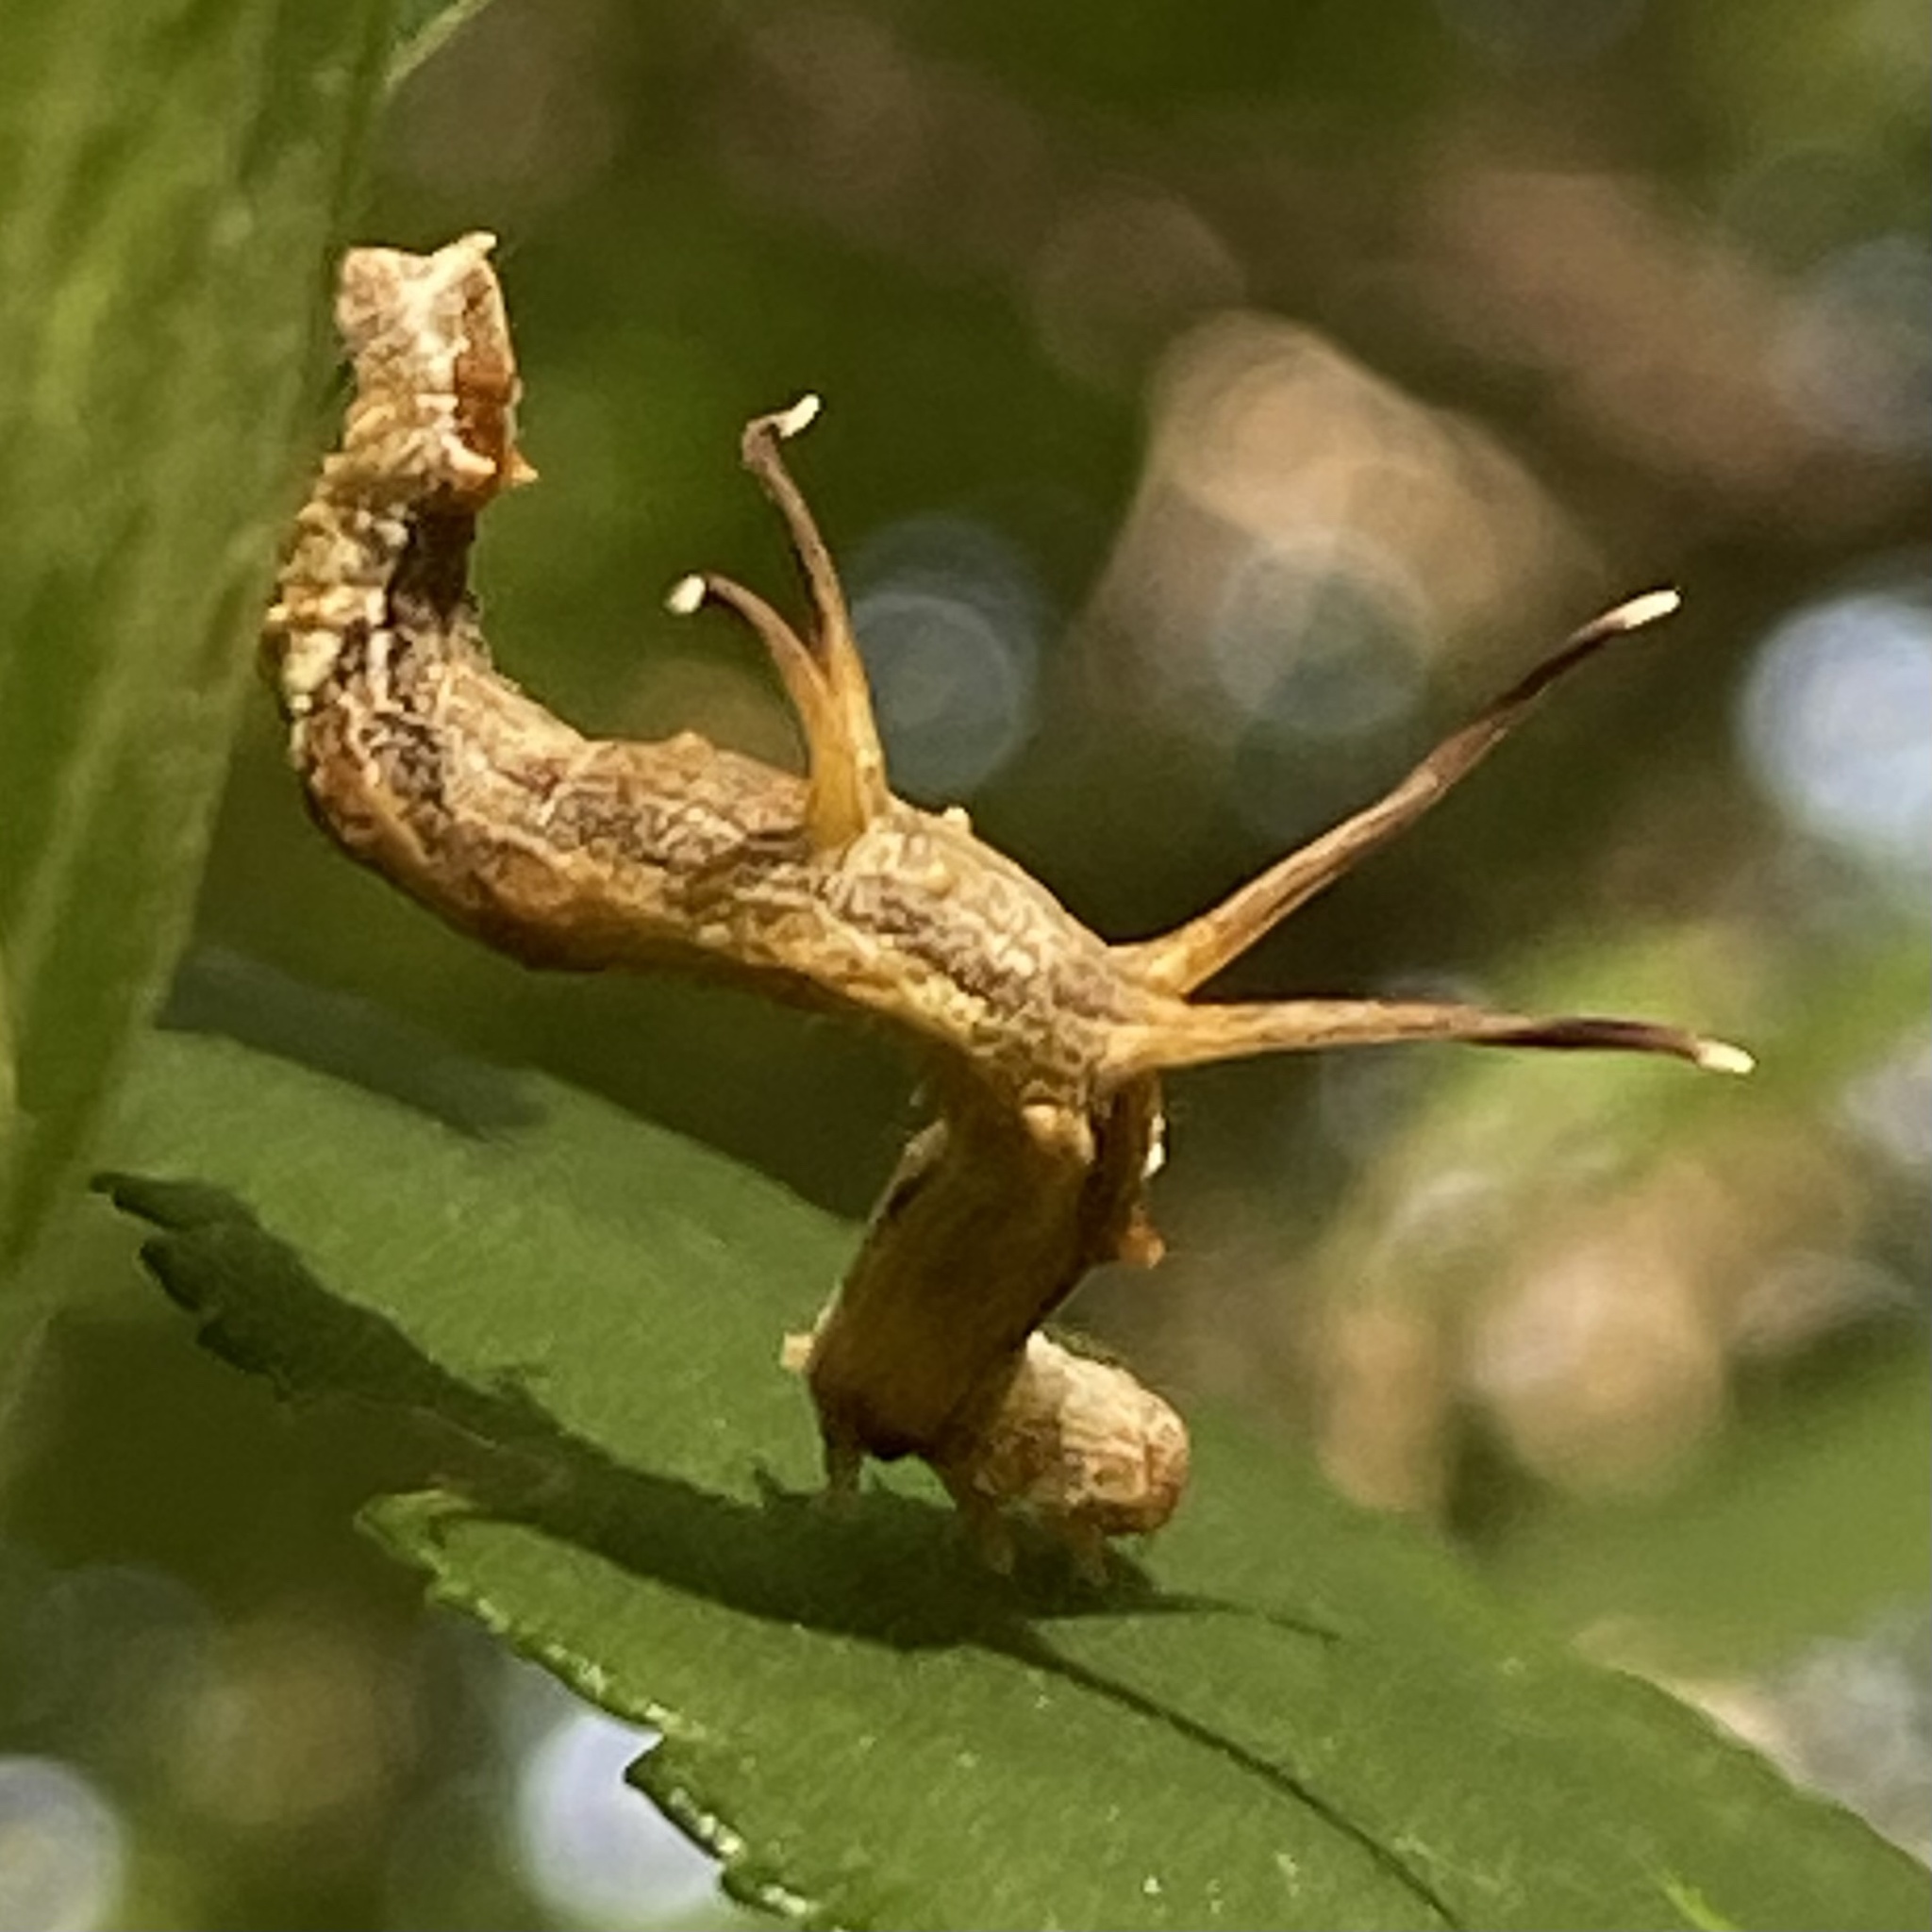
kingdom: Animalia
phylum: Arthropoda
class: Insecta
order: Lepidoptera
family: Geometridae
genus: Nematocampa
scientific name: Nematocampa resistaria
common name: Horned spanworm moth
